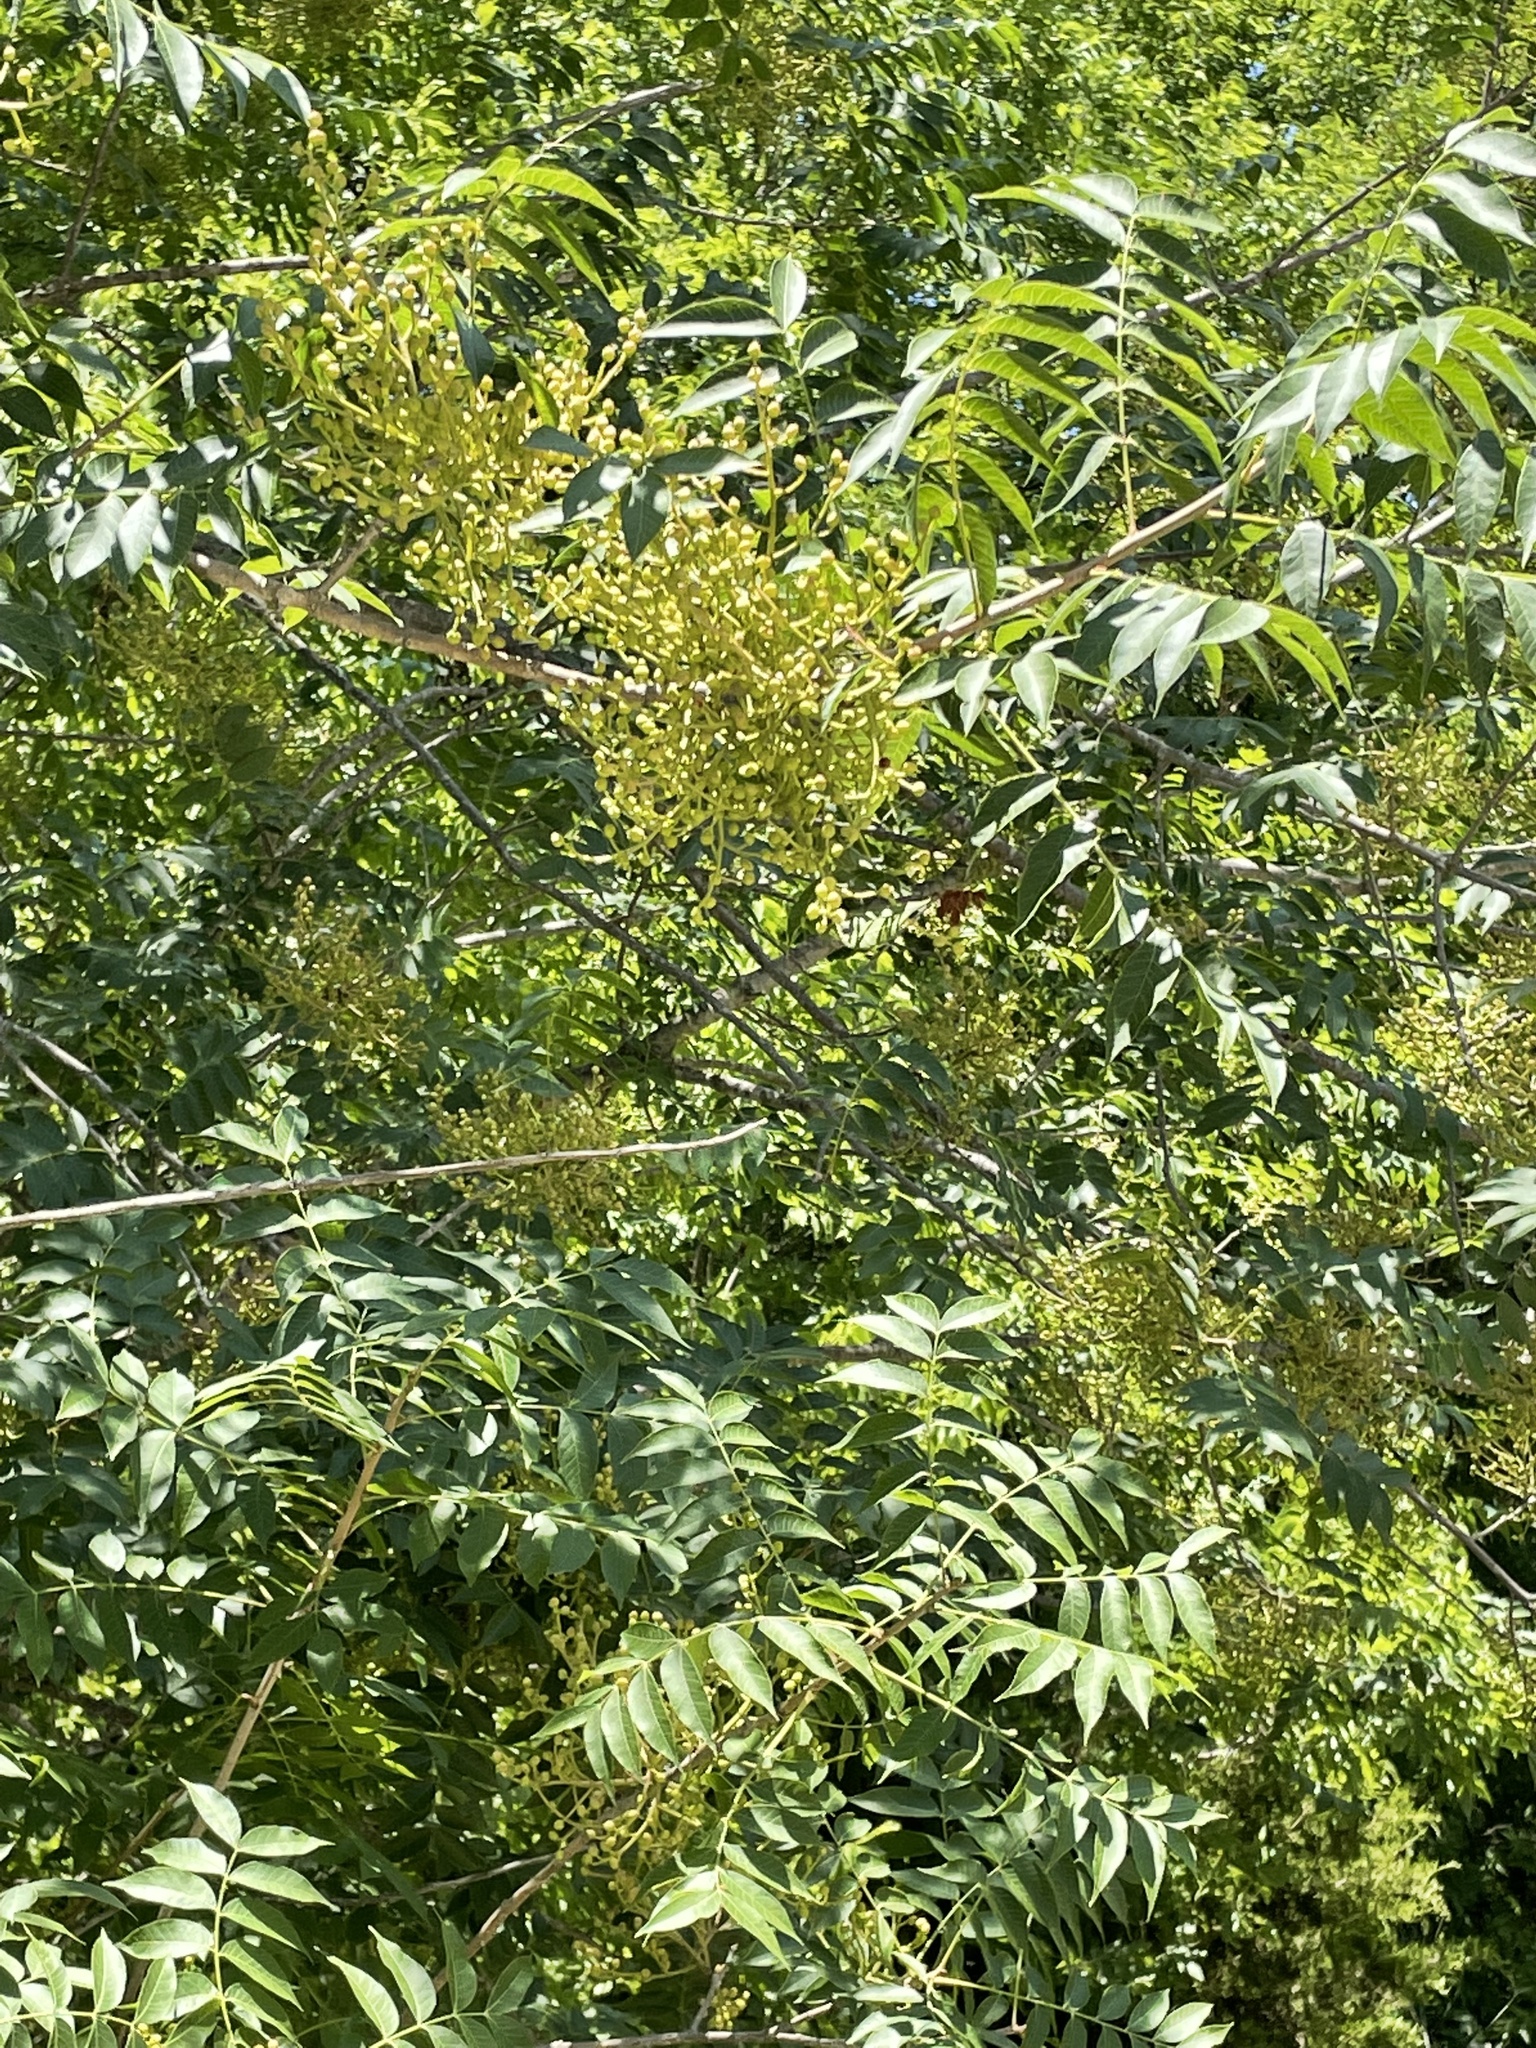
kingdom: Plantae
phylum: Tracheophyta
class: Magnoliopsida
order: Sapindales
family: Anacardiaceae
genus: Pistacia
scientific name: Pistacia chinensis
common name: Chinese pistache
